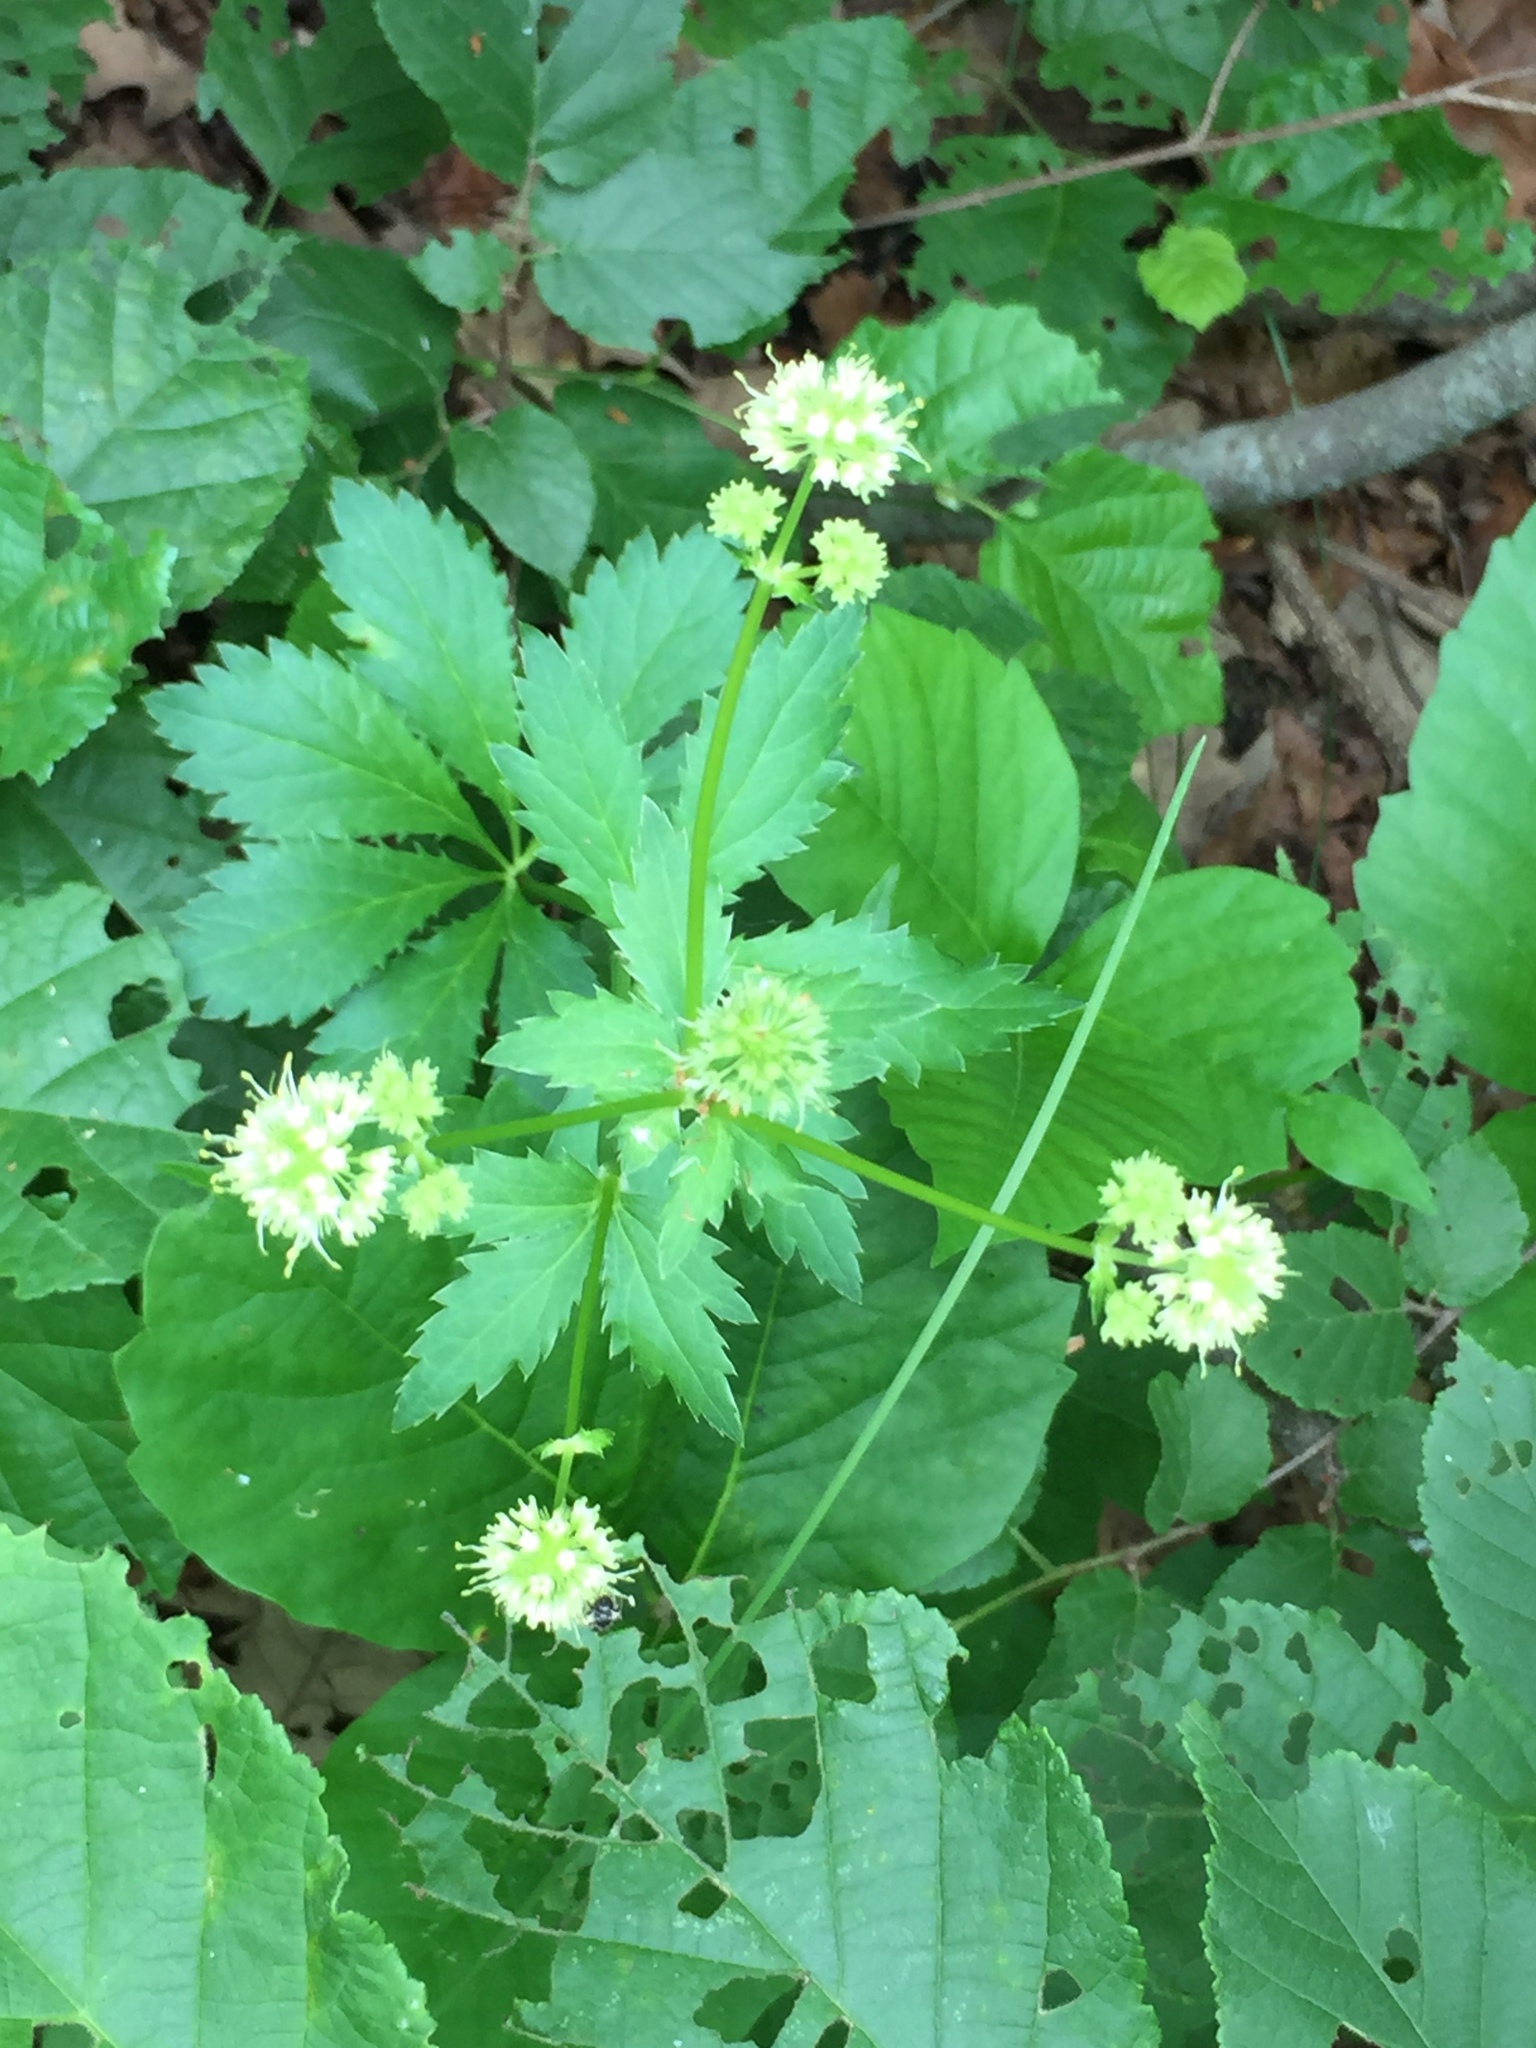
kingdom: Plantae
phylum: Tracheophyta
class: Magnoliopsida
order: Apiales
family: Apiaceae
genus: Sanicula
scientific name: Sanicula marilandica
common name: Black snakeroot
